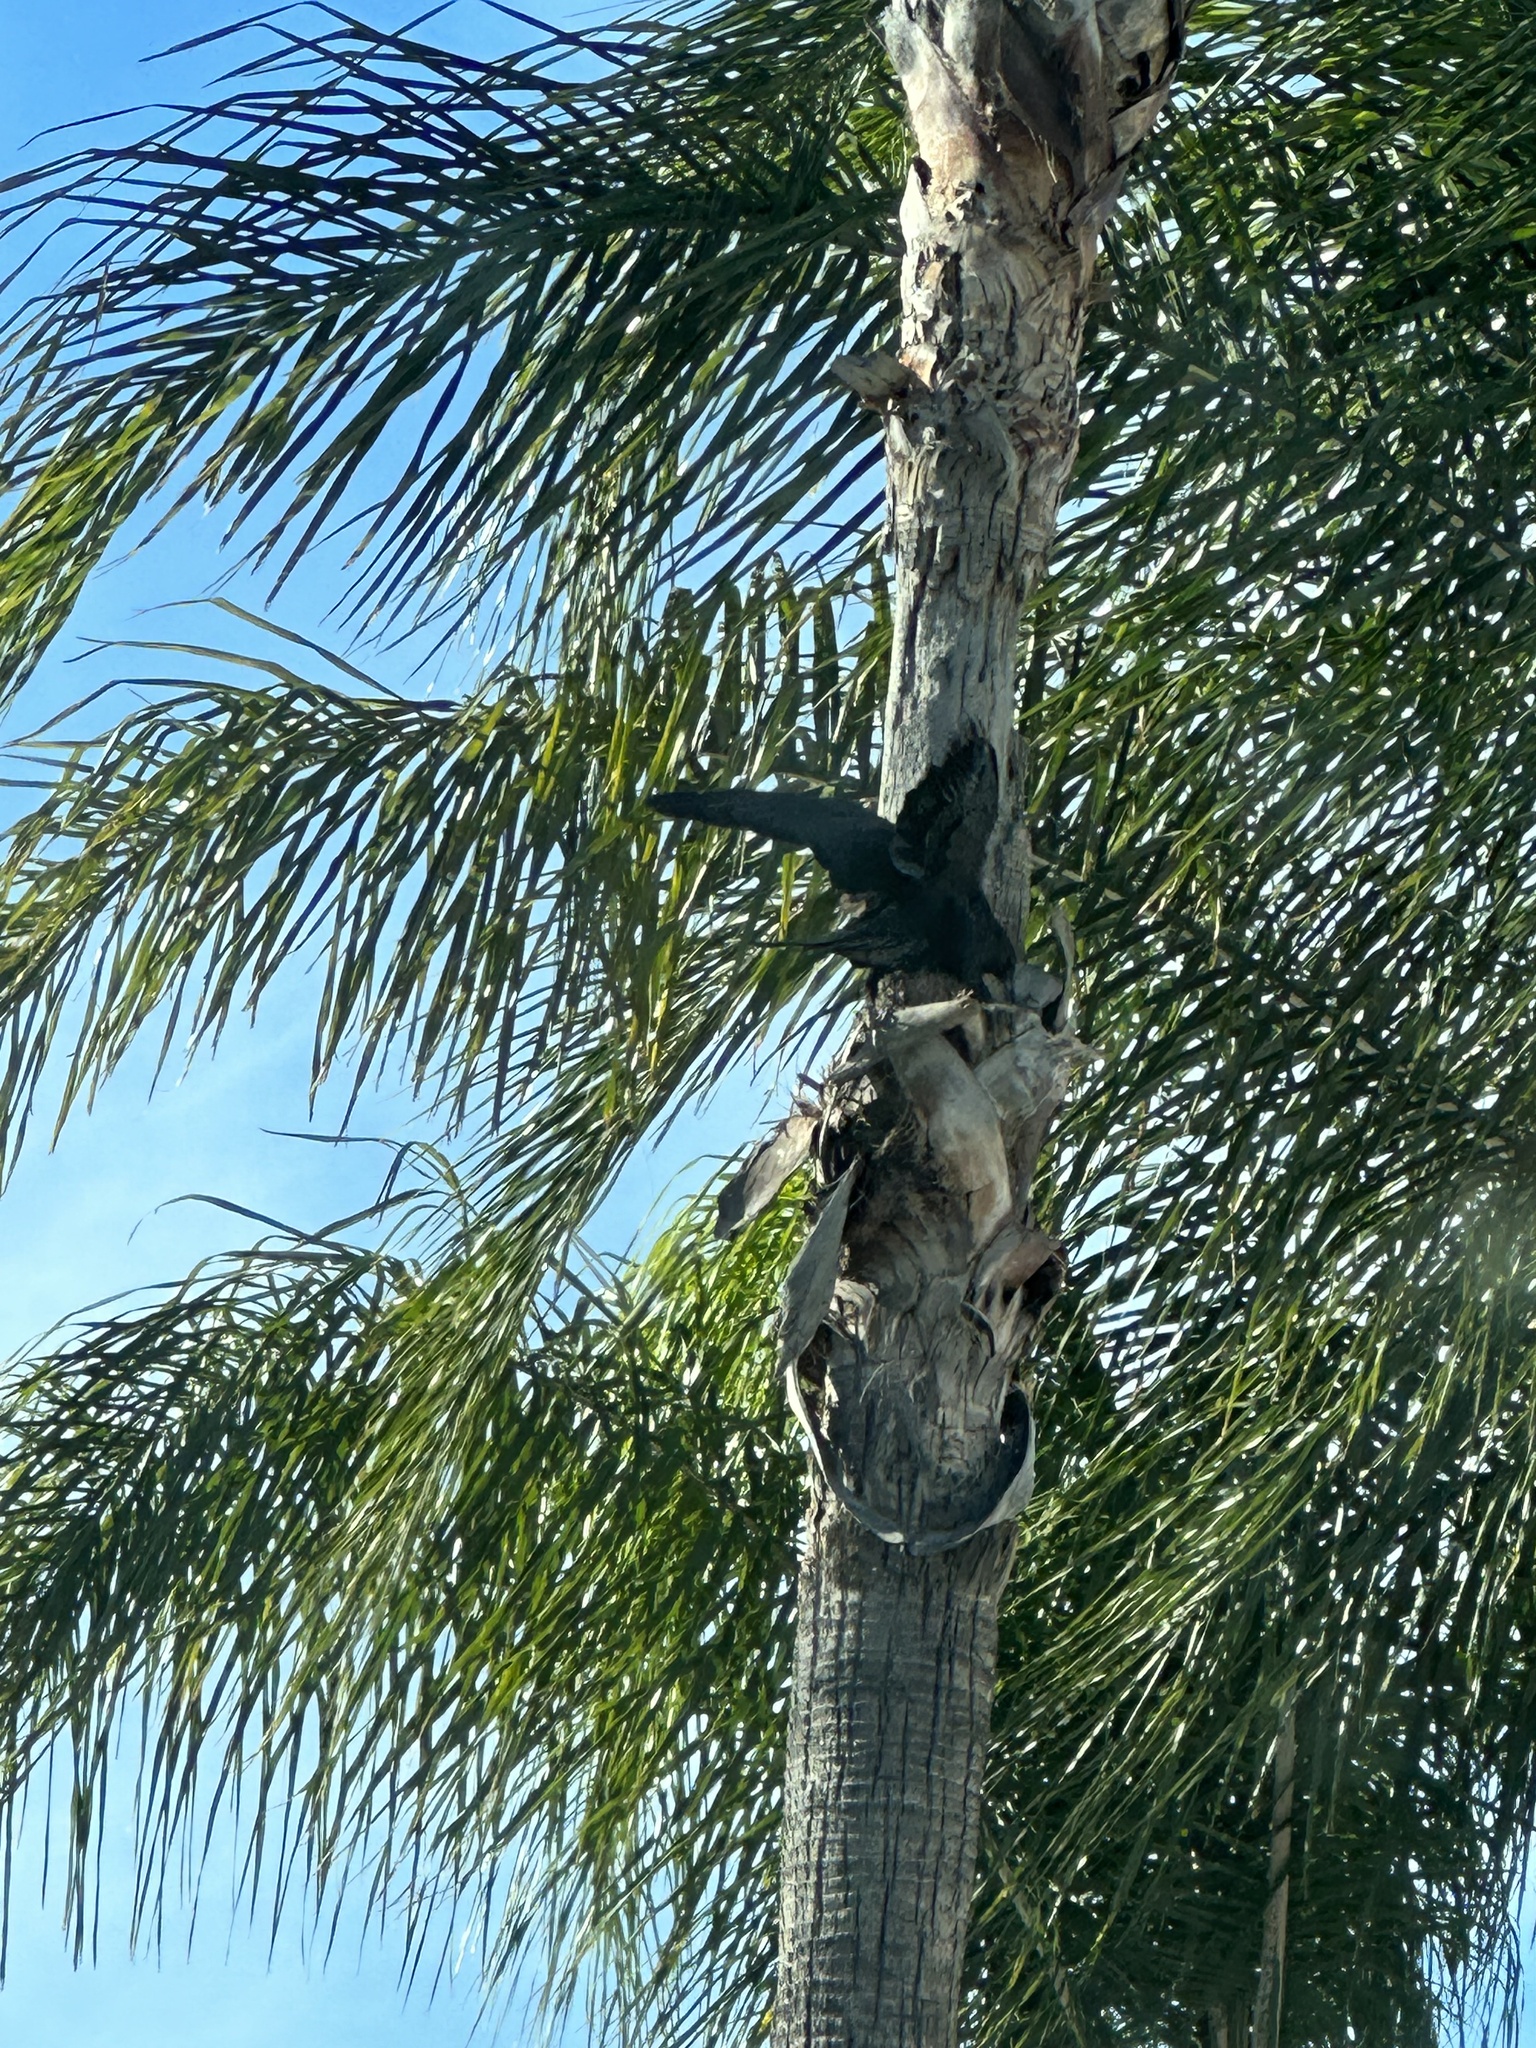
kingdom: Animalia
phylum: Chordata
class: Aves
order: Passeriformes
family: Corvidae
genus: Corvus
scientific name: Corvus corax
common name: Common raven
